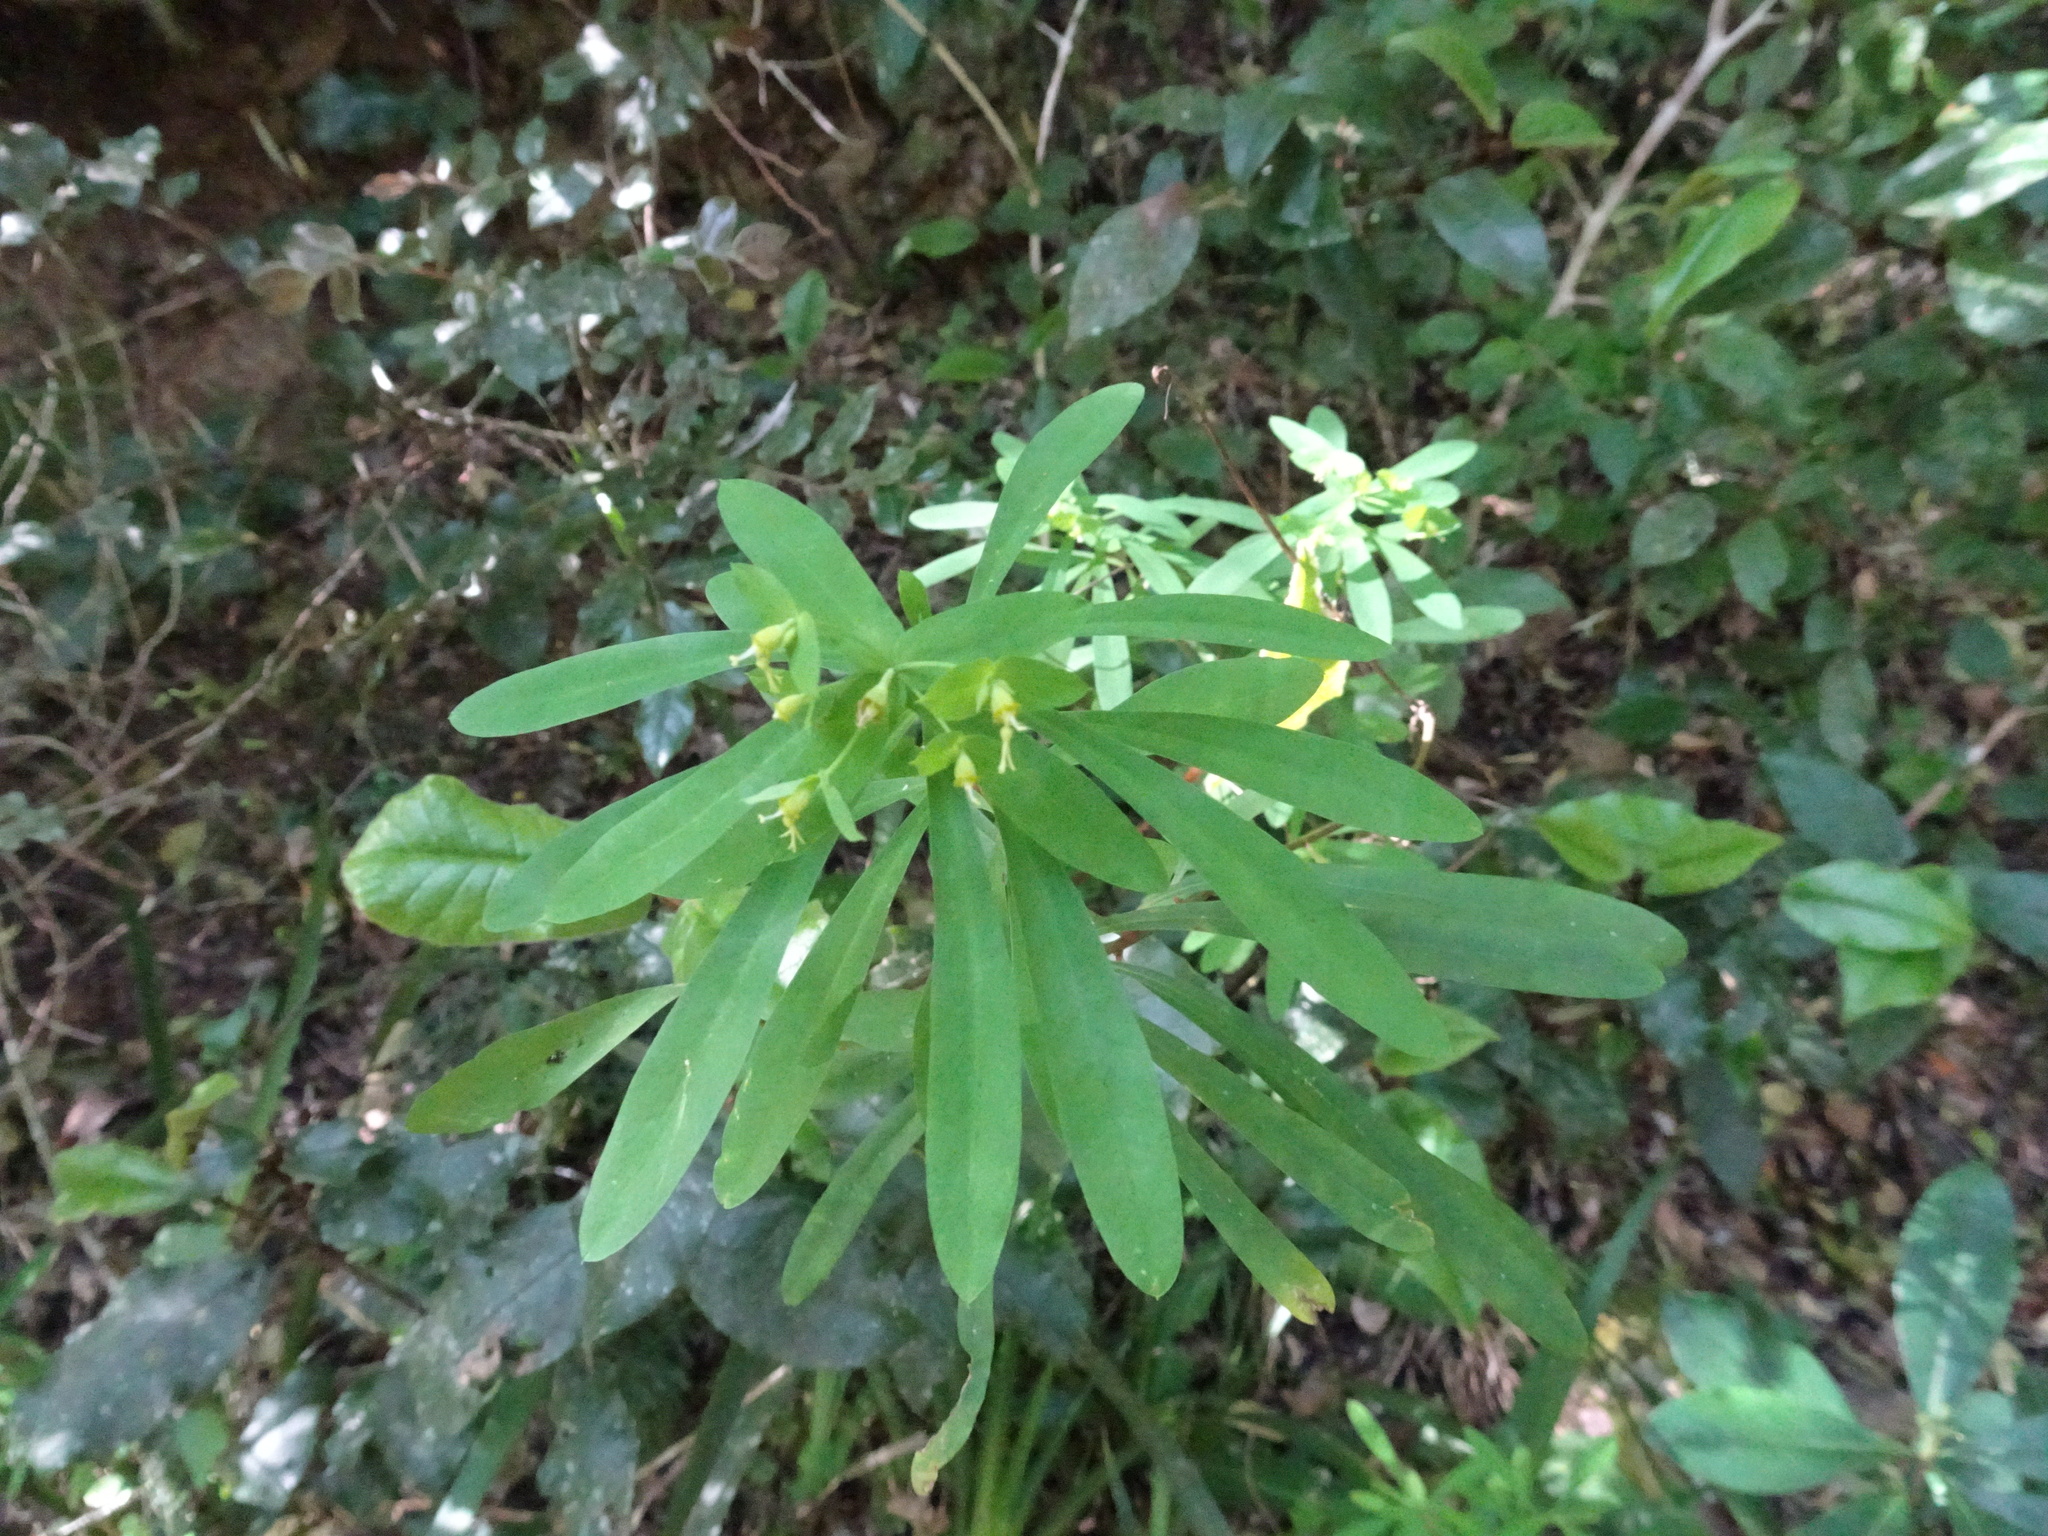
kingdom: Plantae
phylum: Tracheophyta
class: Magnoliopsida
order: Malpighiales
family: Euphorbiaceae
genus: Euphorbia
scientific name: Euphorbia kraussiana
